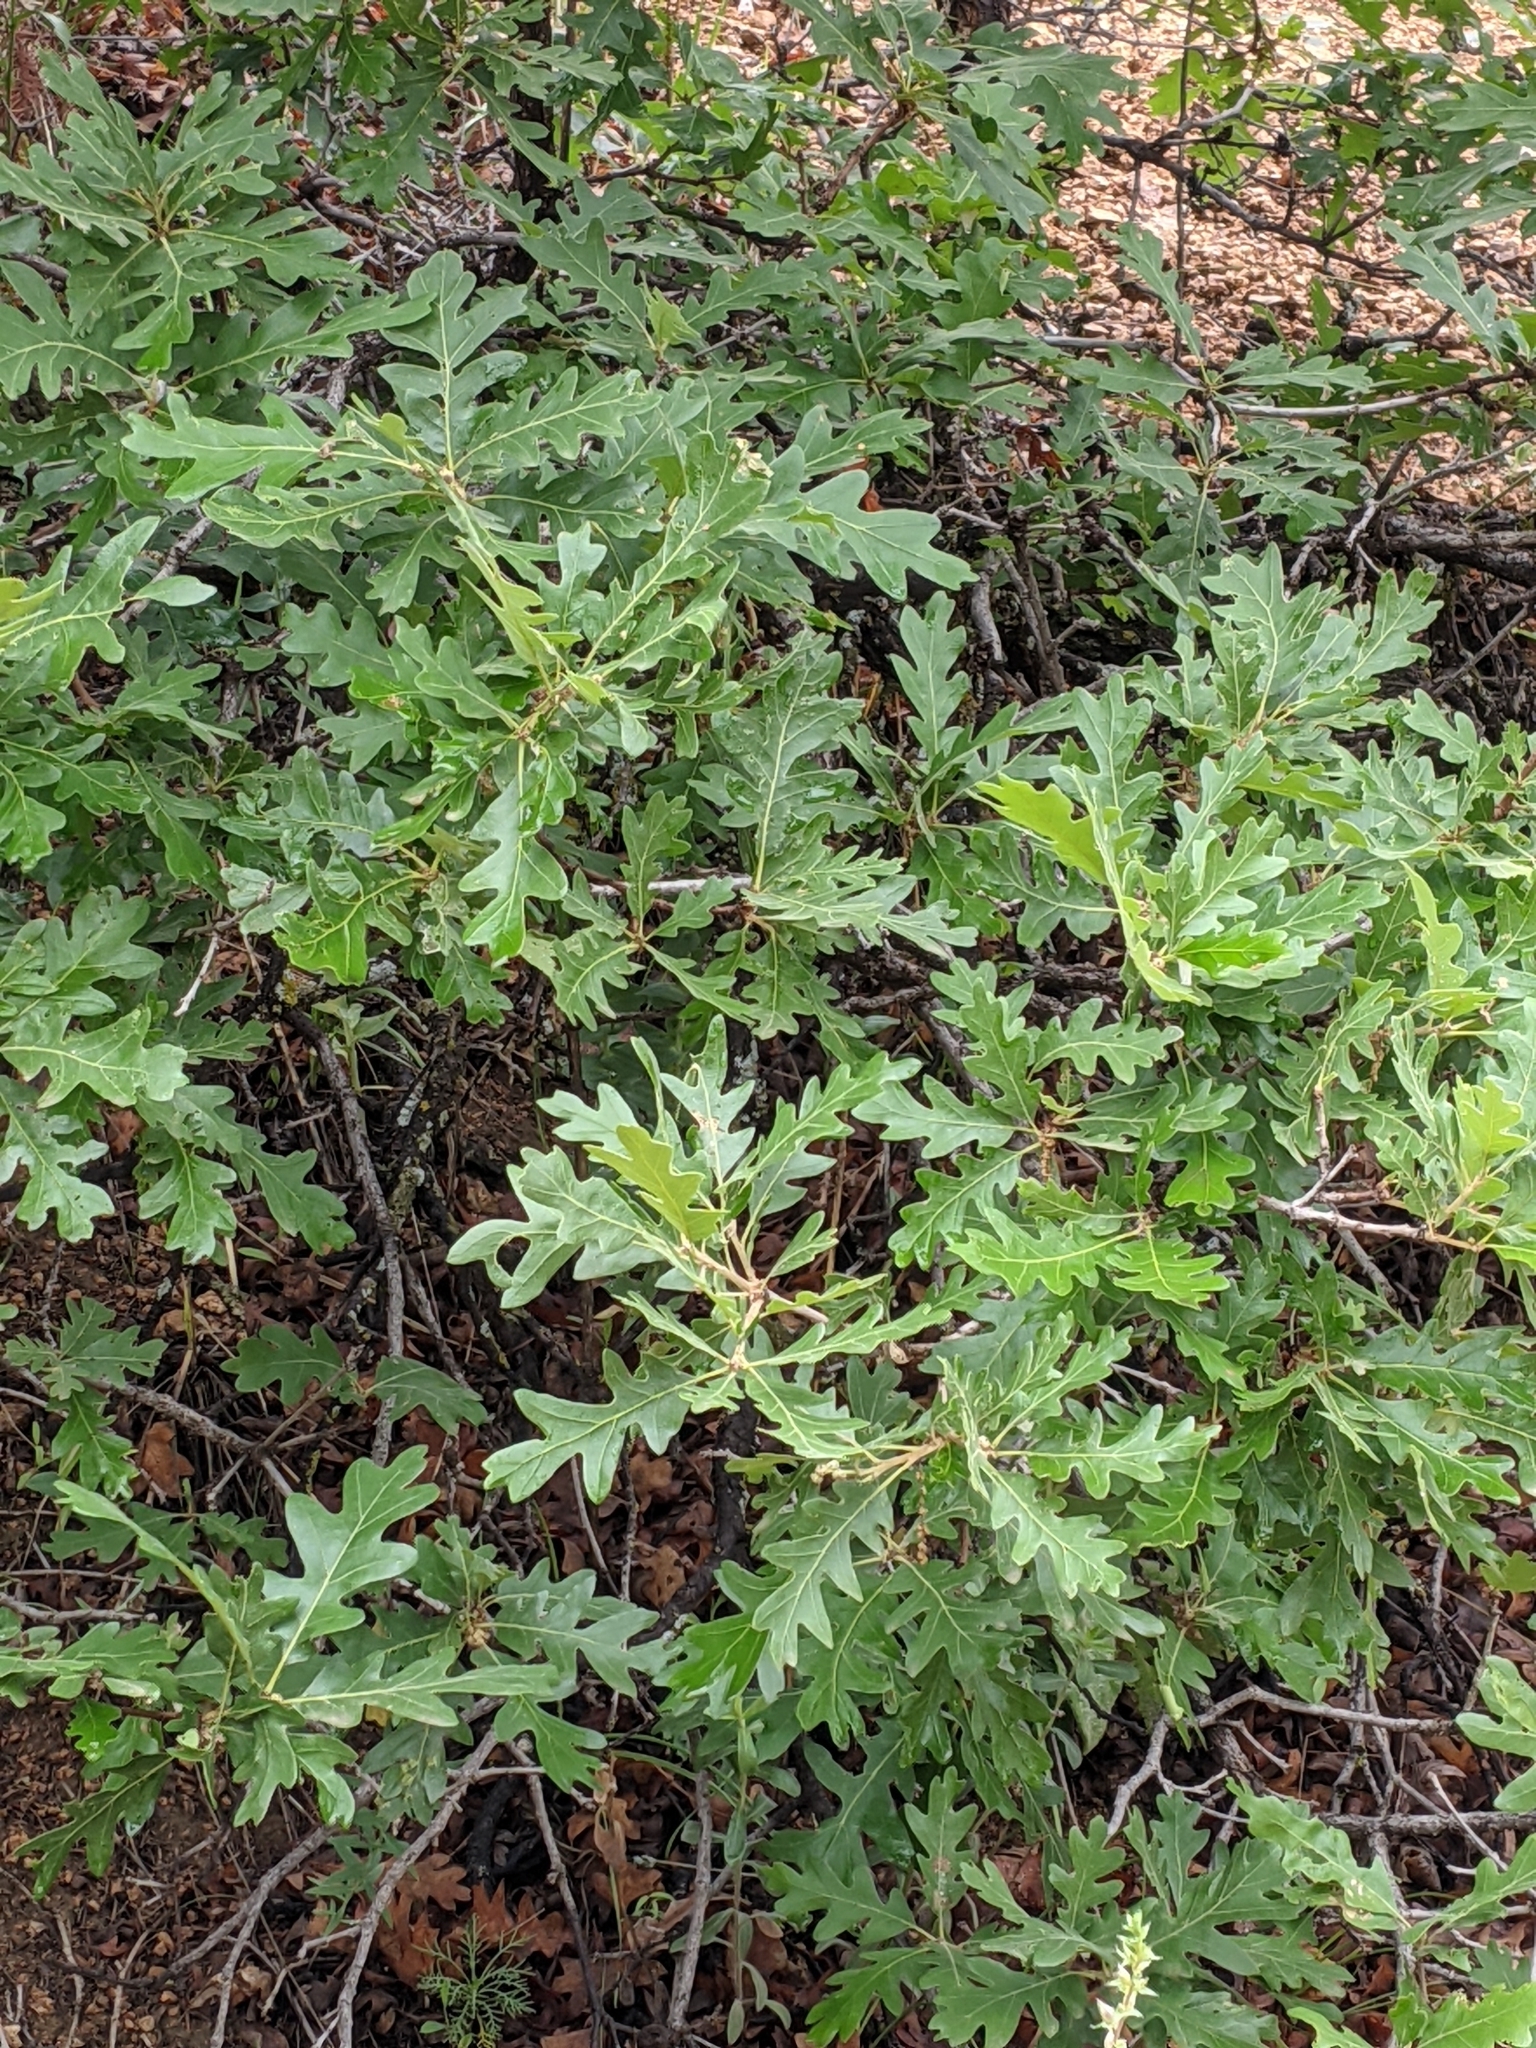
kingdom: Plantae
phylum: Tracheophyta
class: Magnoliopsida
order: Fagales
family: Fagaceae
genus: Quercus
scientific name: Quercus gambelii
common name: Gambel oak
